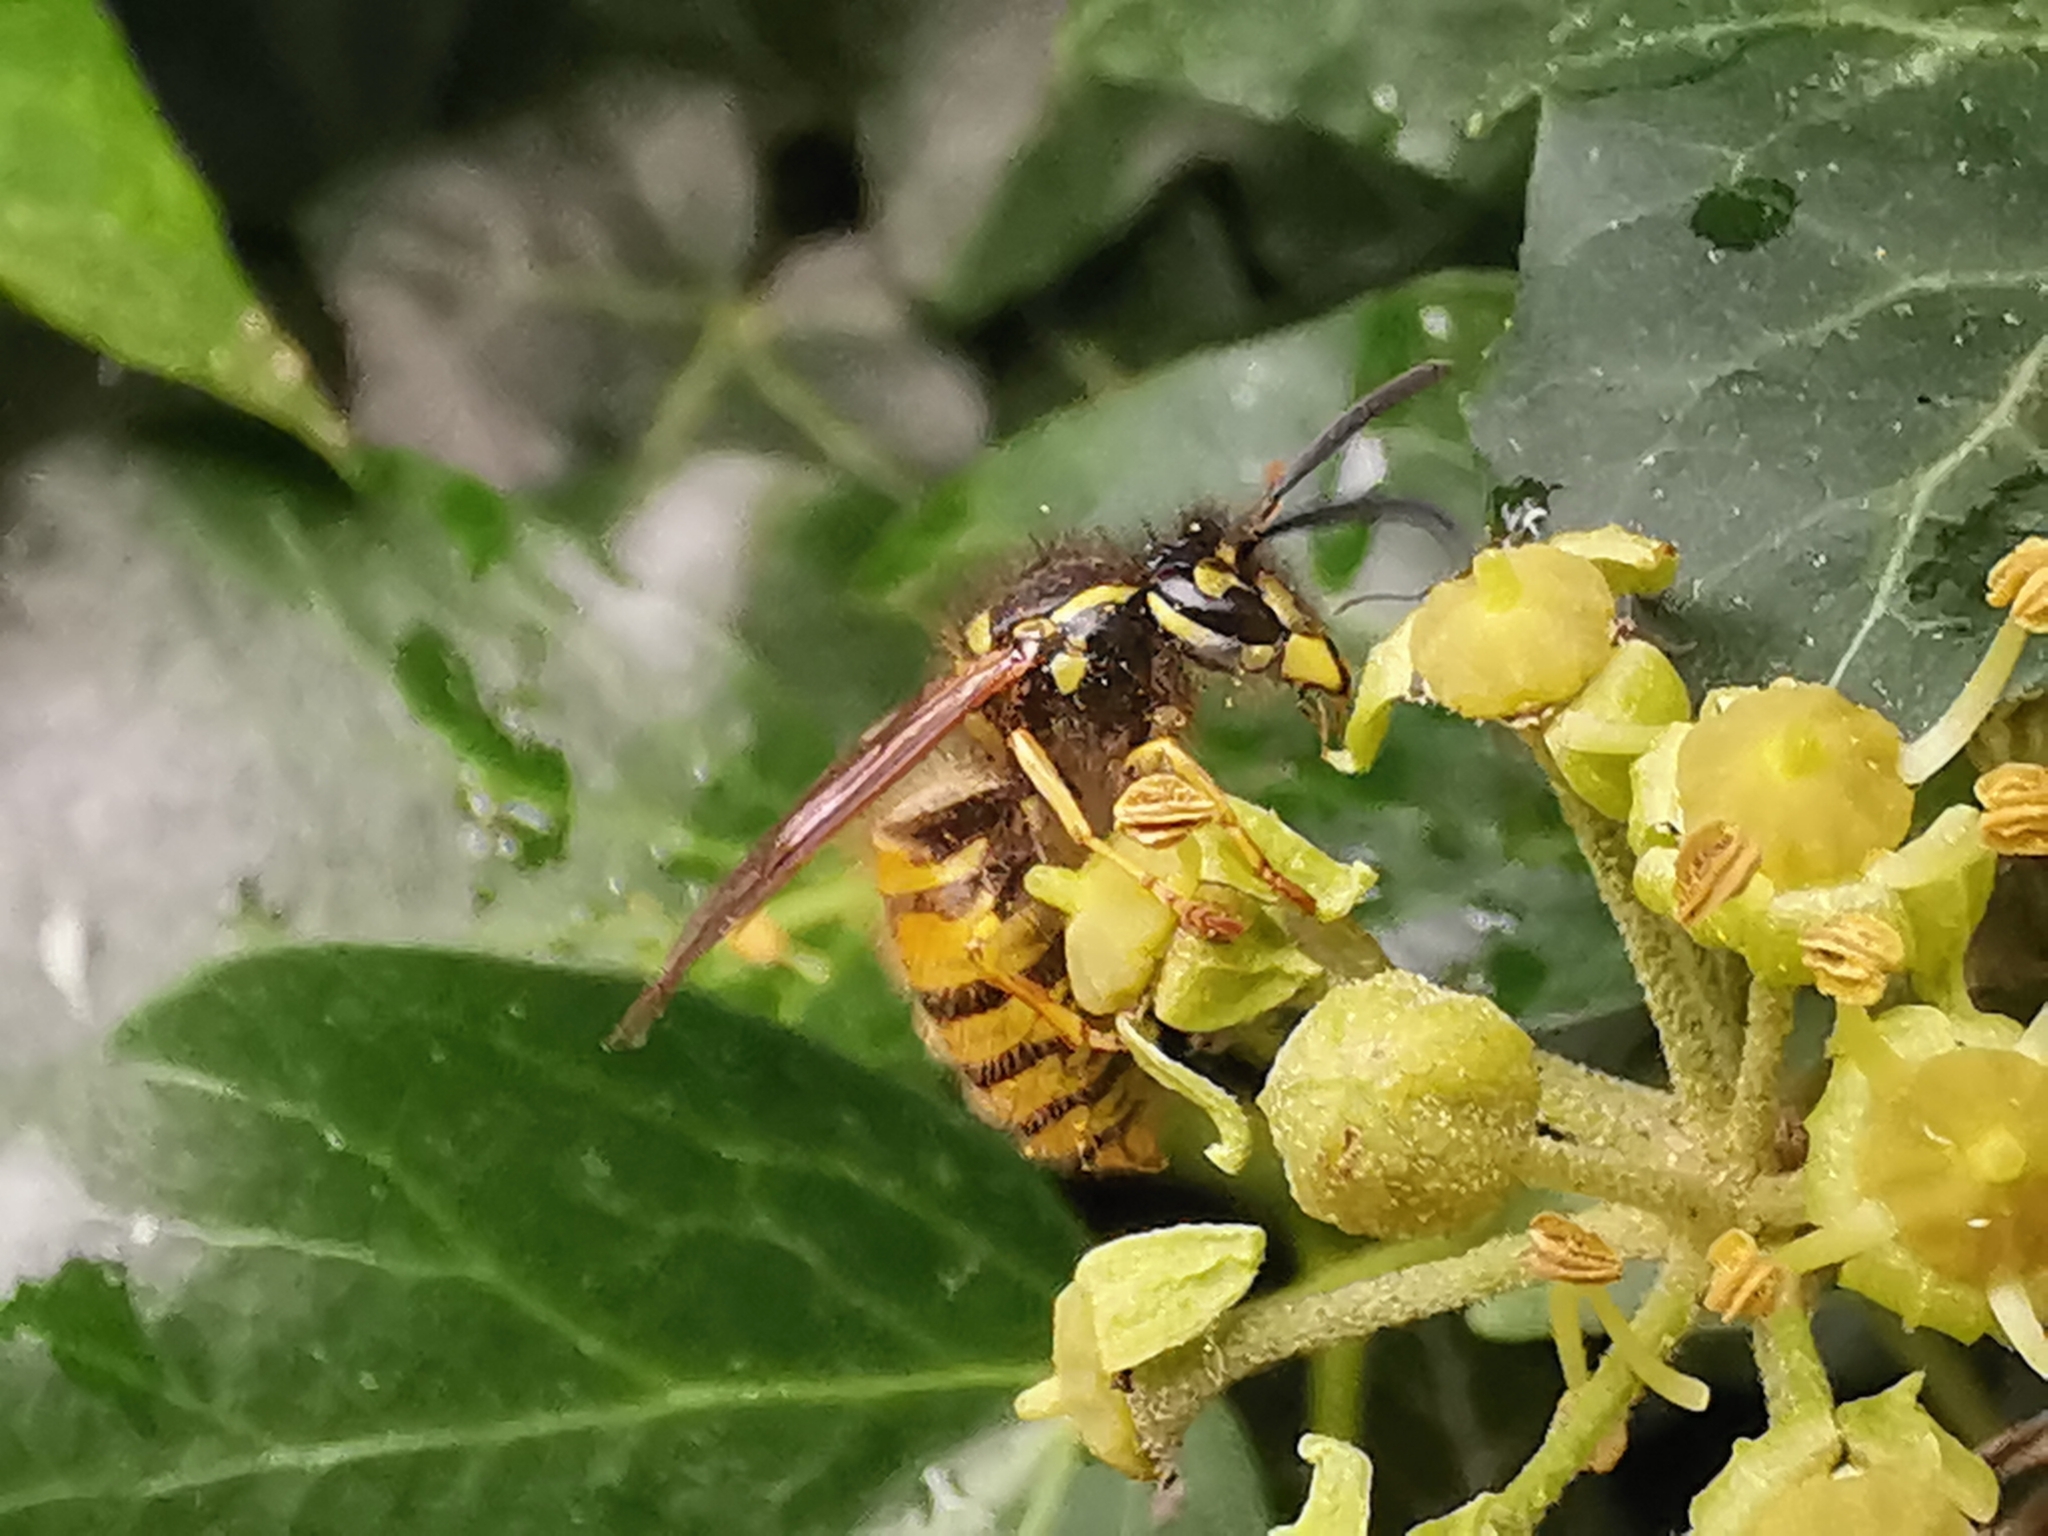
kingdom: Animalia
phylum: Arthropoda
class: Insecta
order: Hymenoptera
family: Vespidae
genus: Vespula
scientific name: Vespula vulgaris
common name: Common wasp
